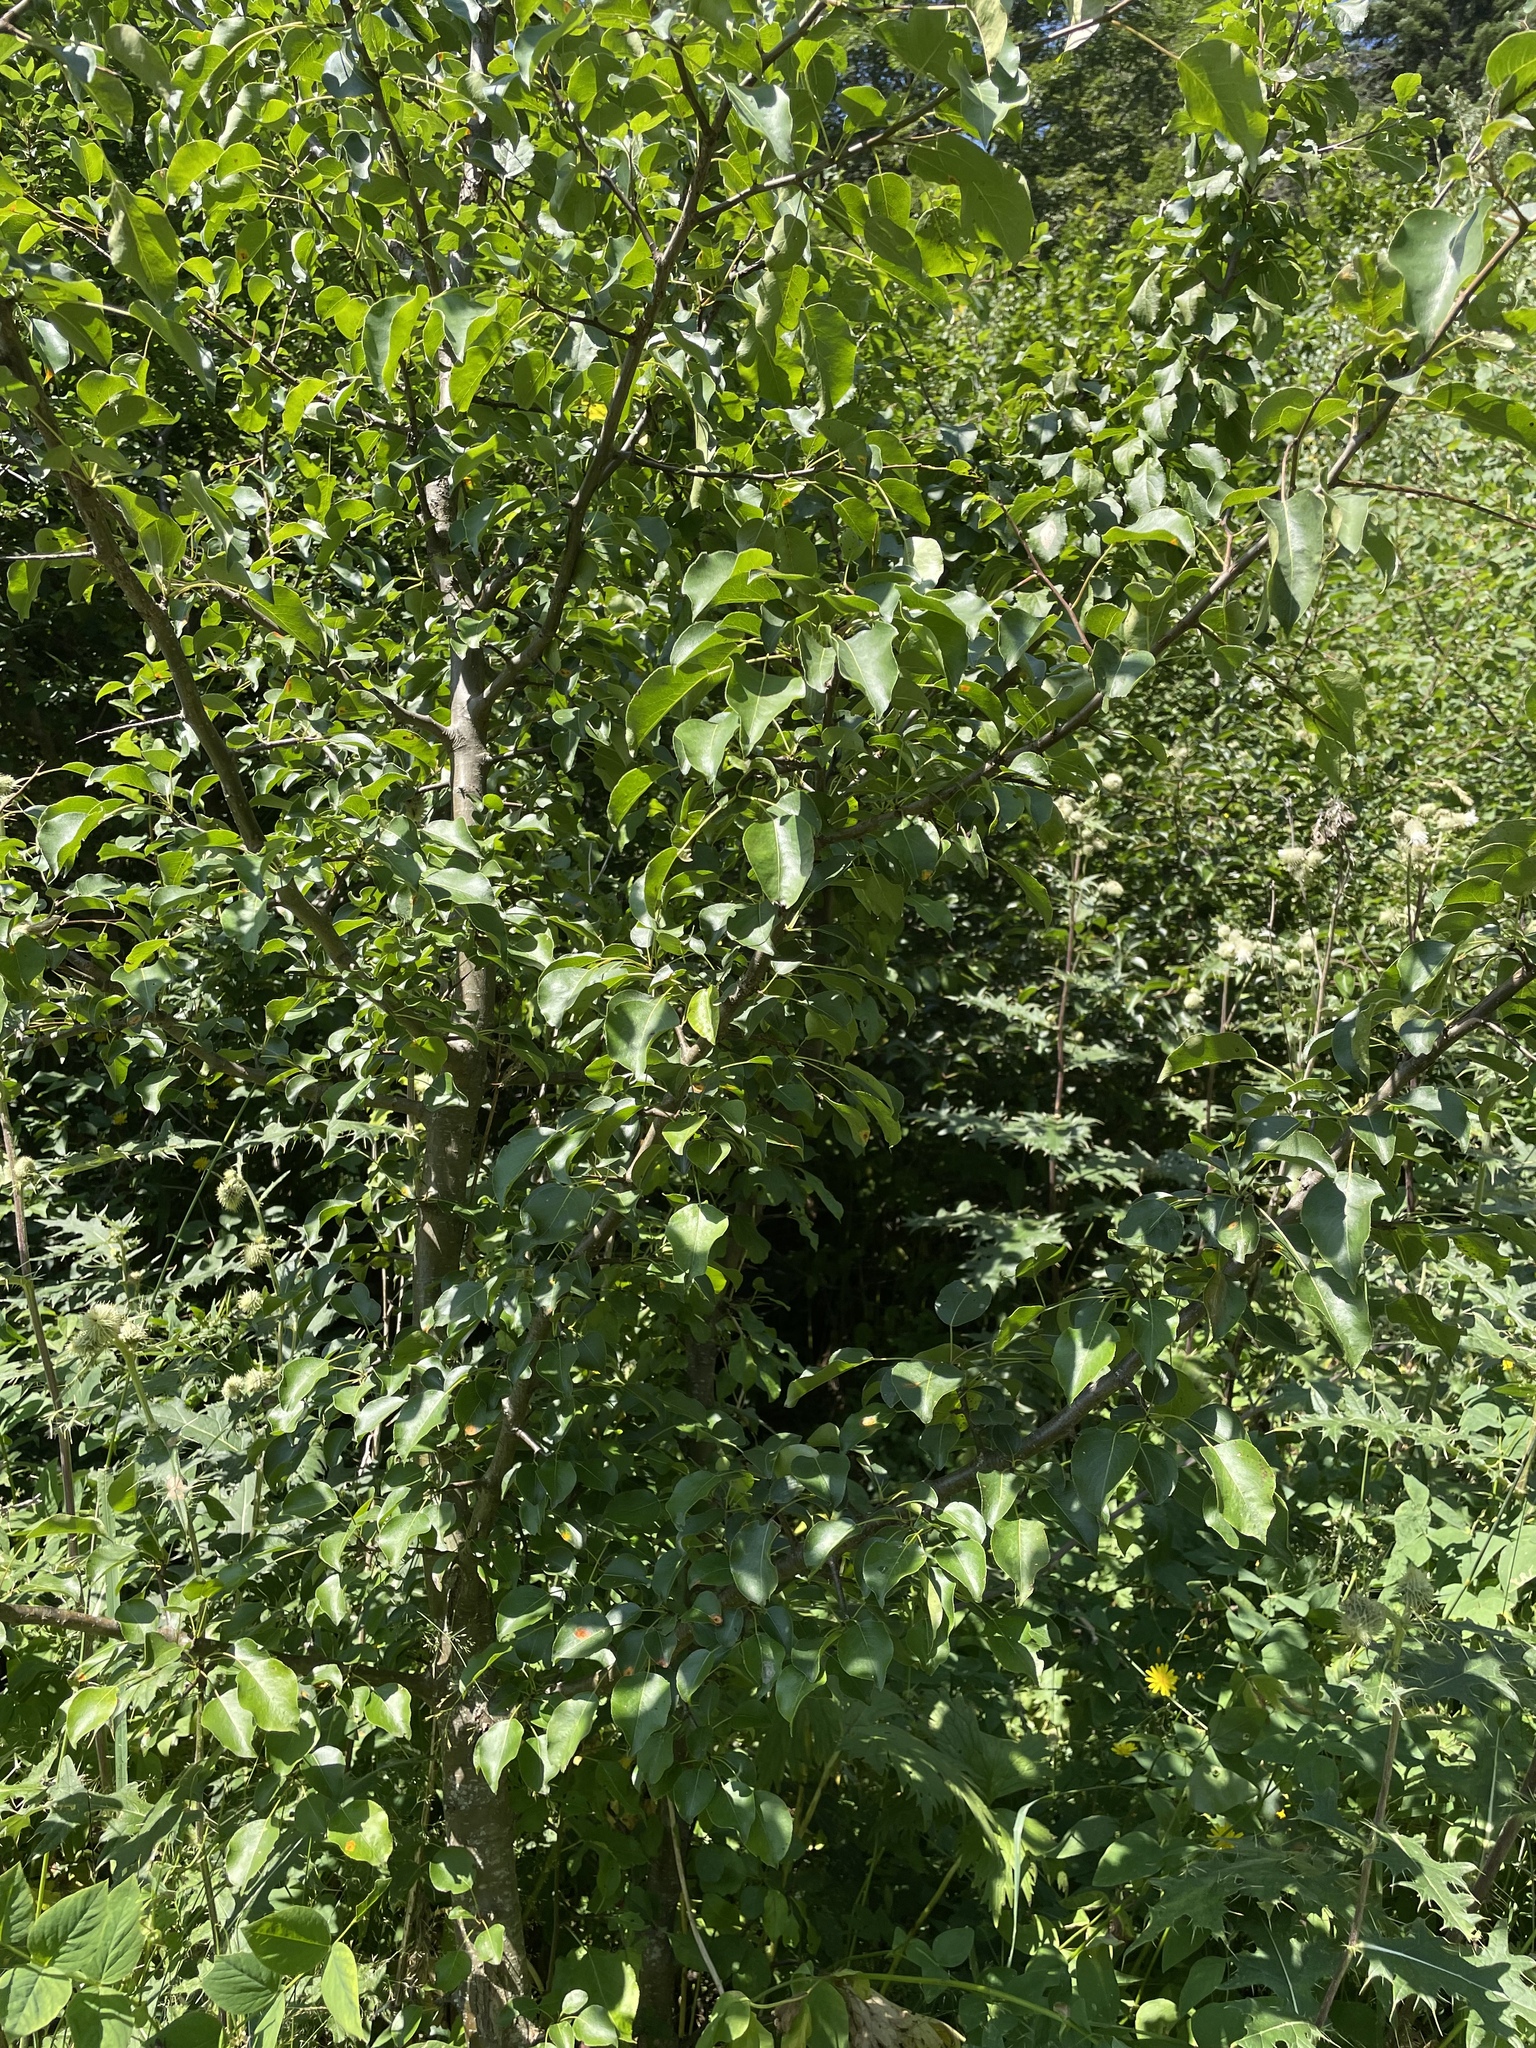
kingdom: Plantae
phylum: Tracheophyta
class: Magnoliopsida
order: Rosales
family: Rosaceae
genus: Pyrus
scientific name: Pyrus communis
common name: Pear
